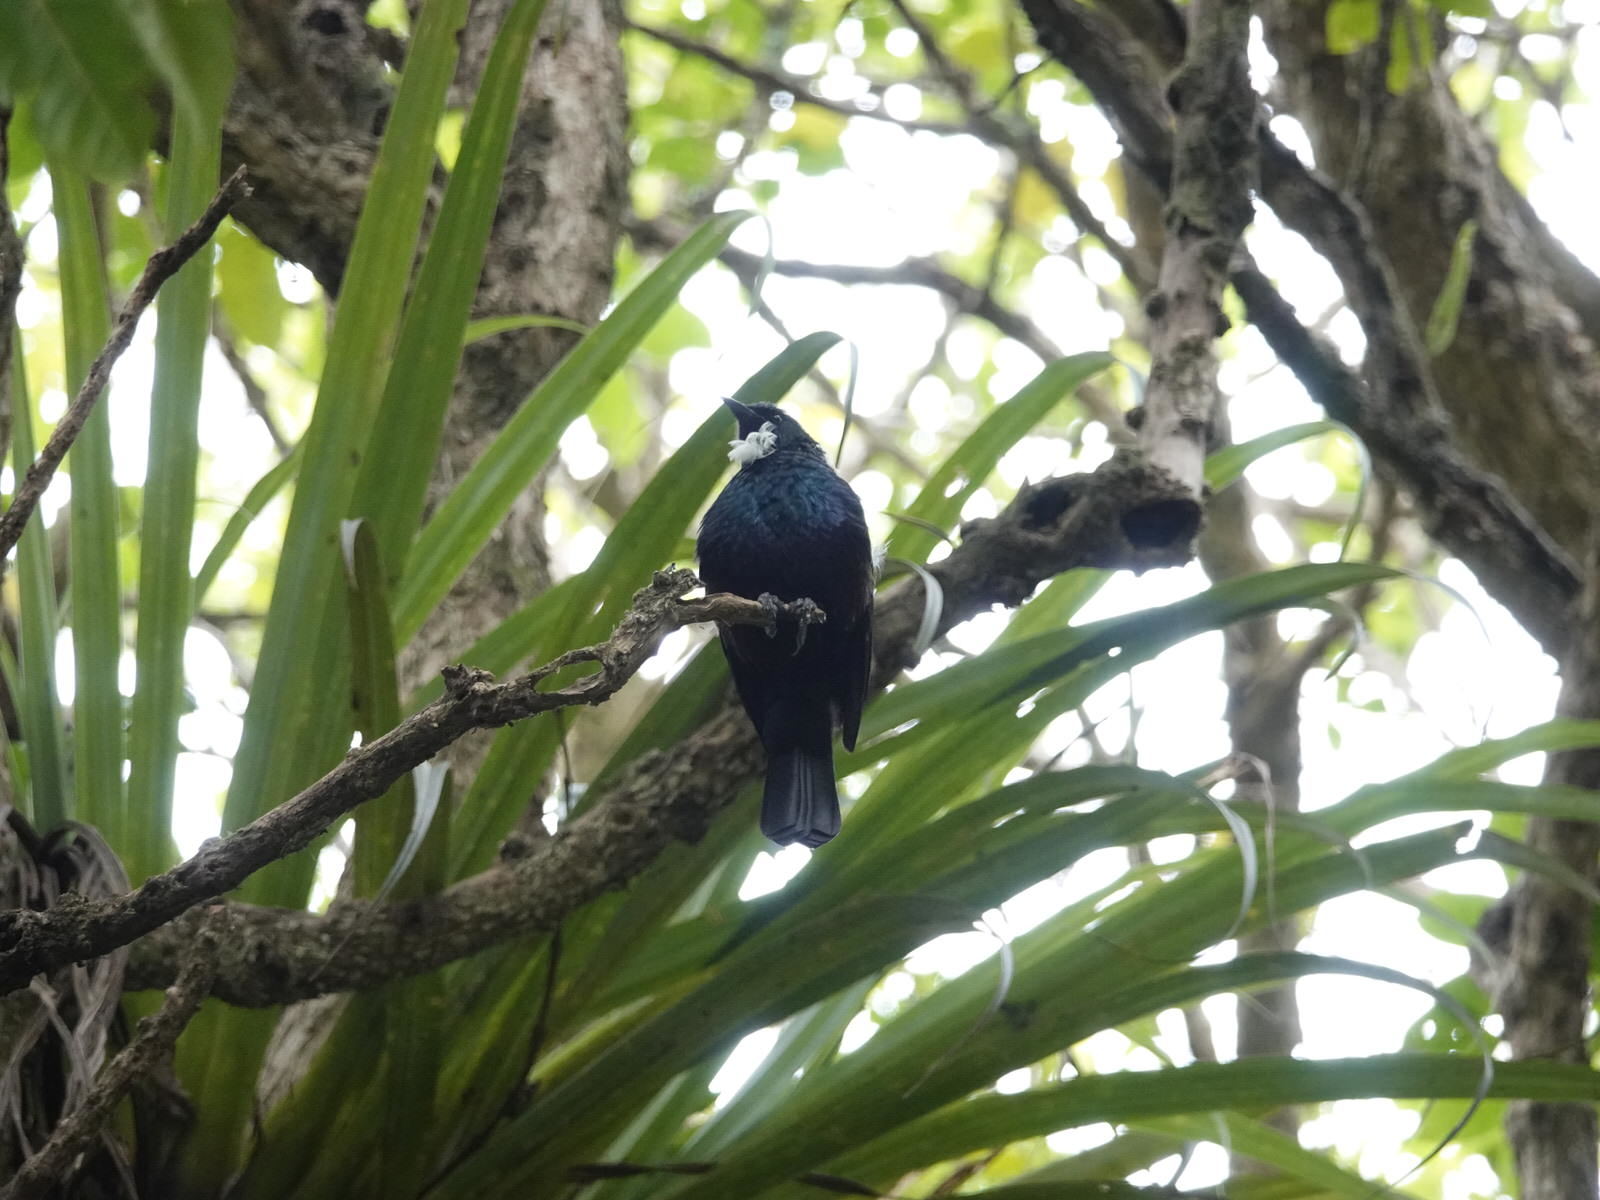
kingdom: Animalia
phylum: Chordata
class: Aves
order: Passeriformes
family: Meliphagidae
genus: Prosthemadera
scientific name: Prosthemadera novaeseelandiae
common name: Tui
